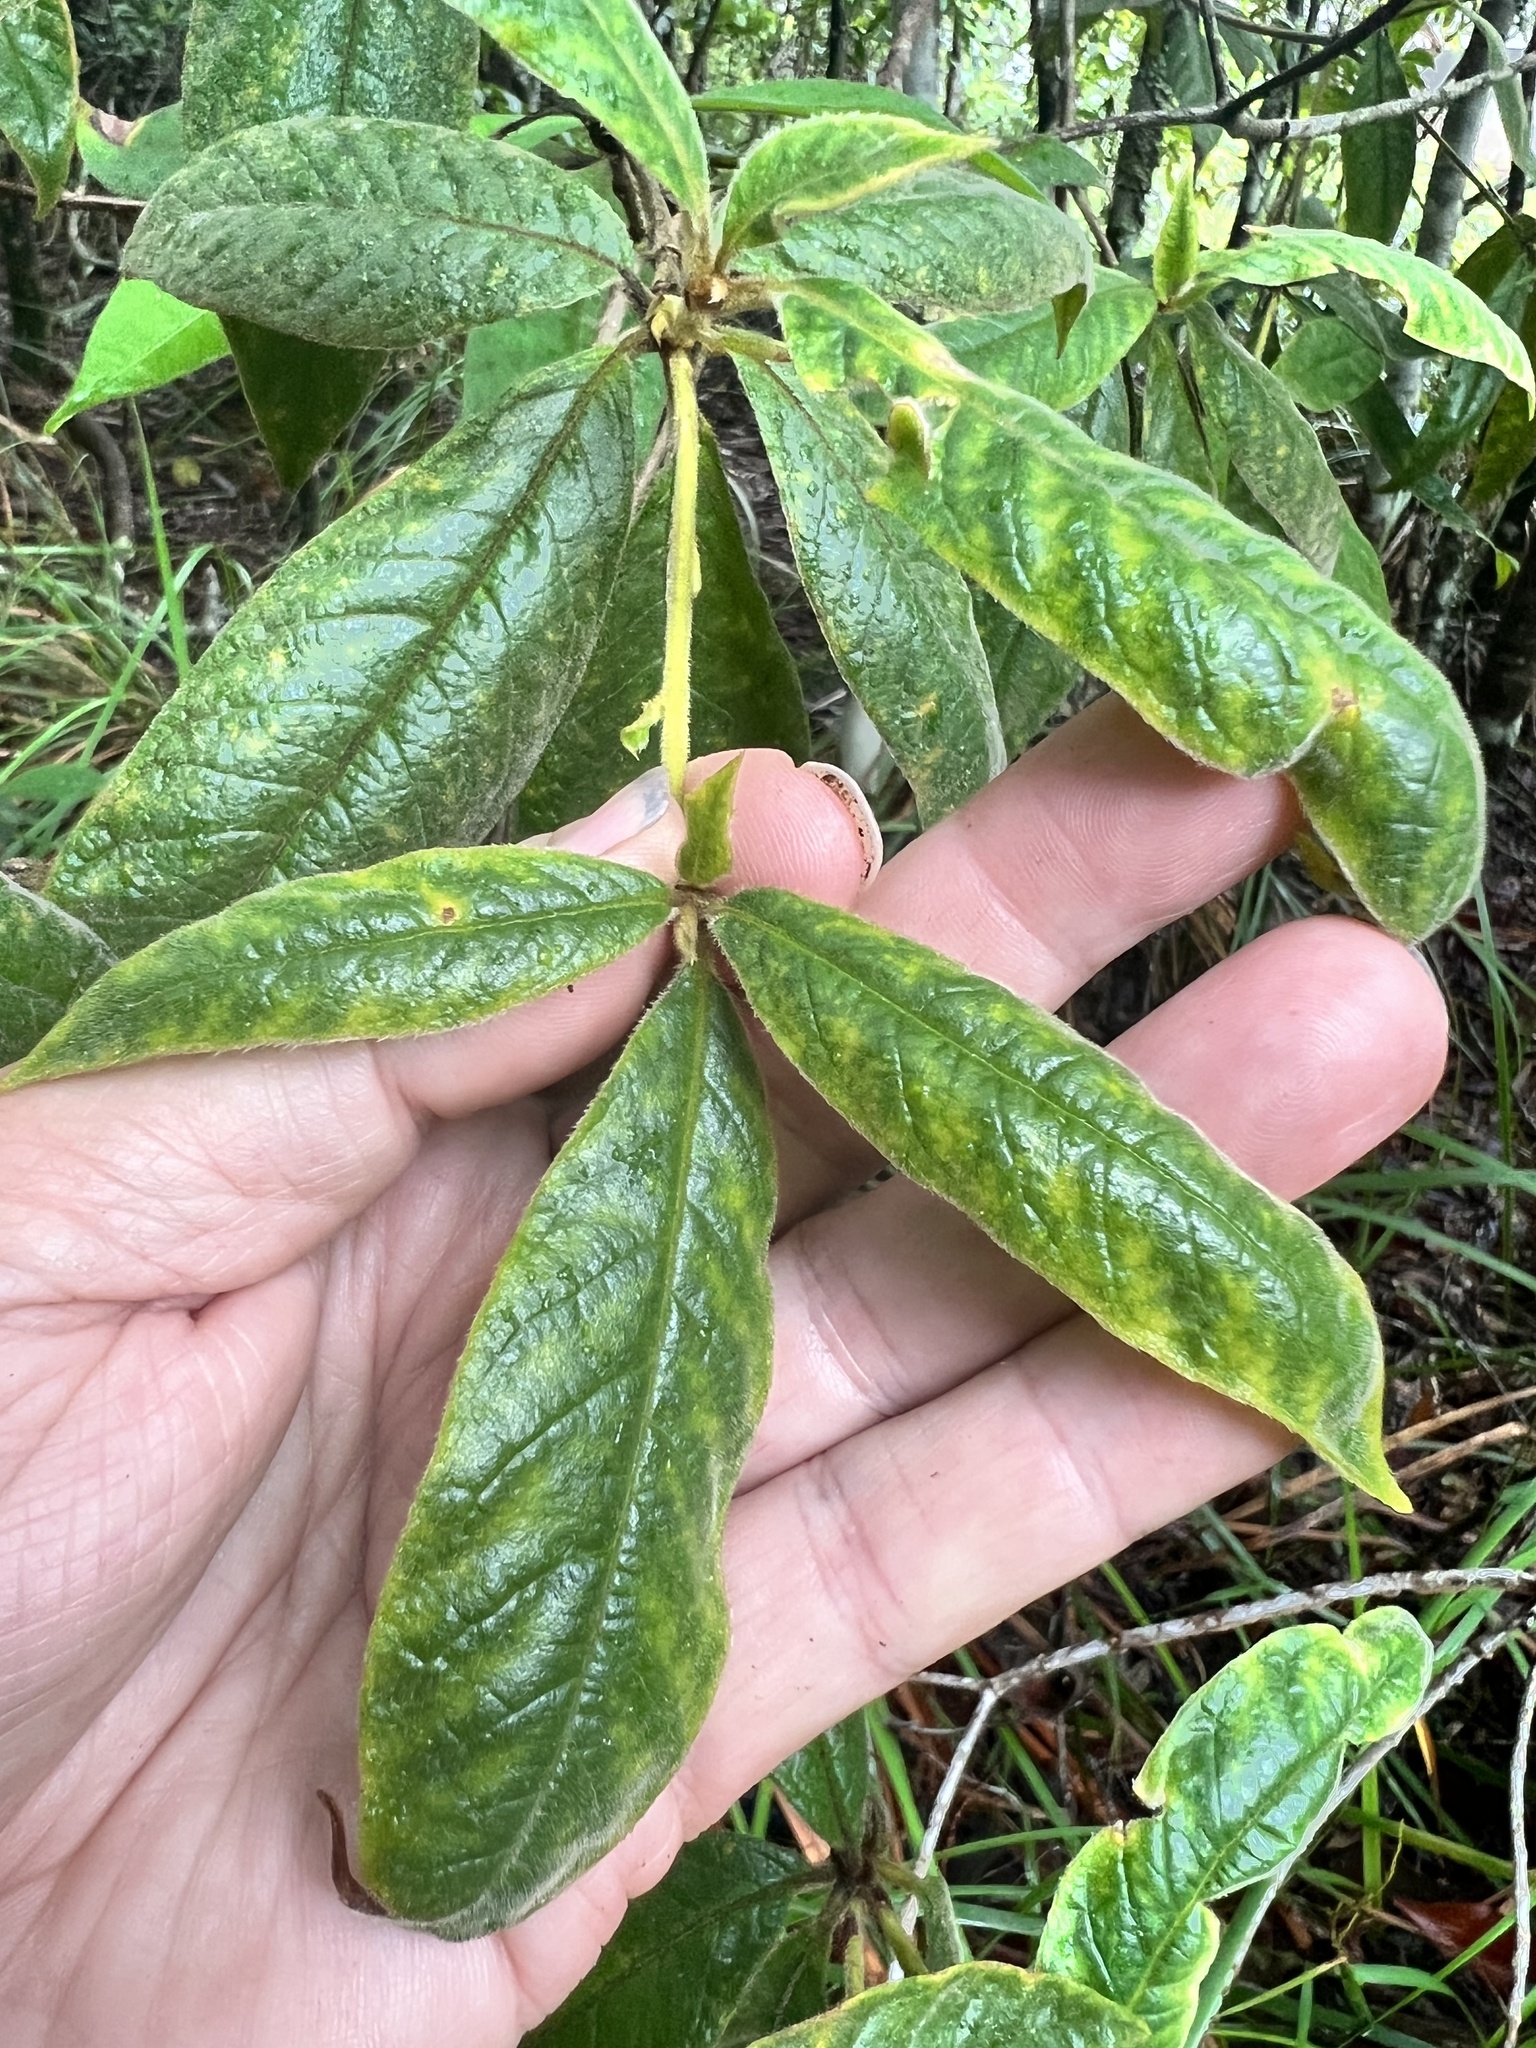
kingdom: Plantae
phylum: Tracheophyta
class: Magnoliopsida
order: Apiales
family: Pittosporaceae
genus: Pittosporum
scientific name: Pittosporum wingii
